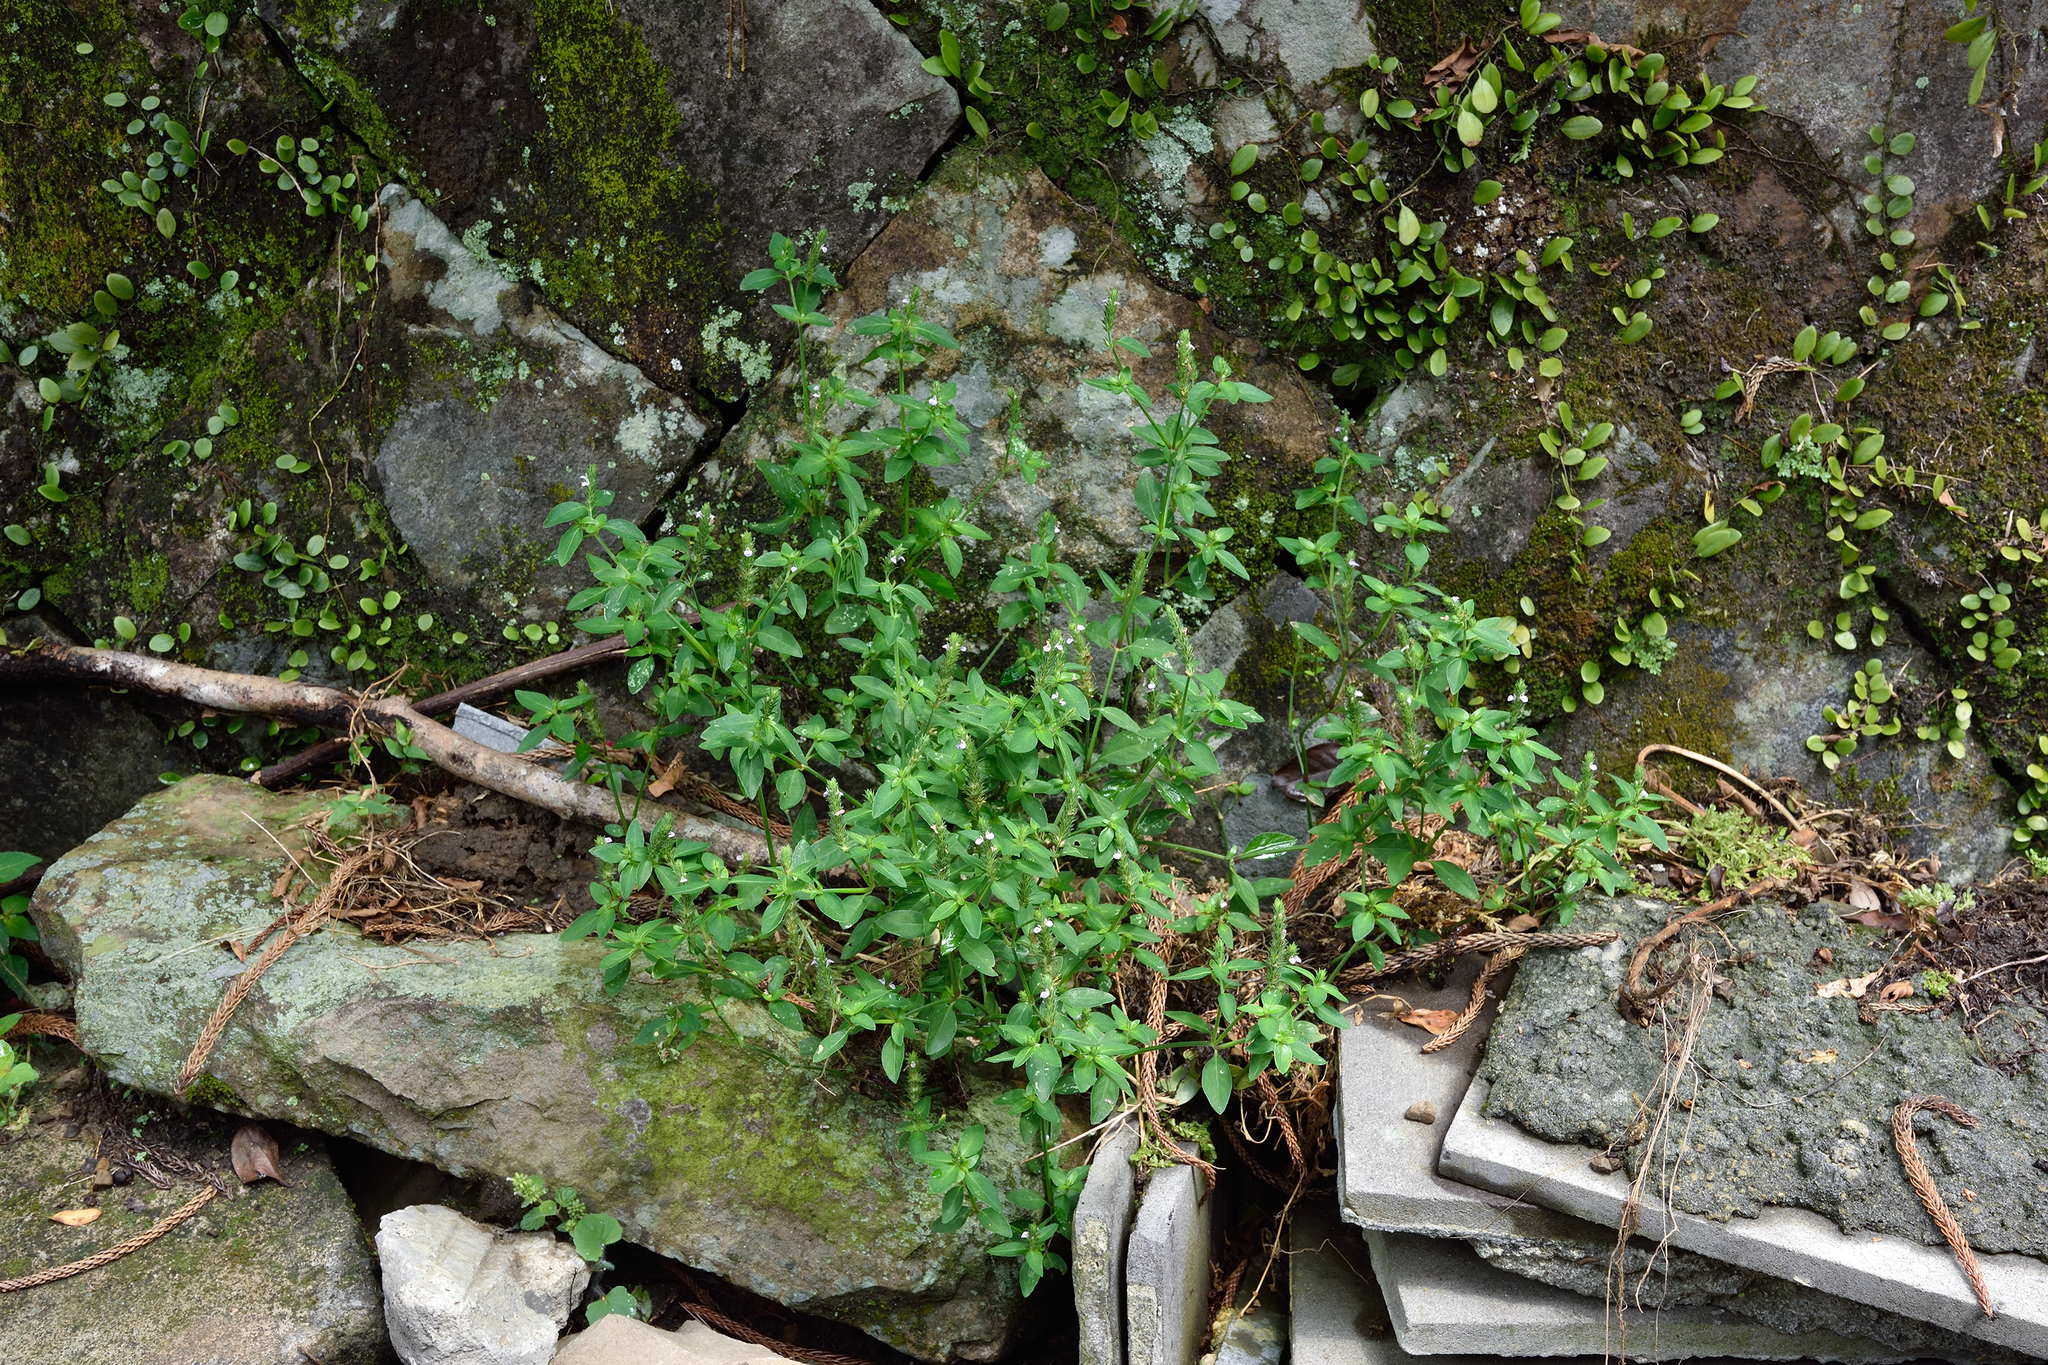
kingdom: Plantae
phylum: Tracheophyta
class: Magnoliopsida
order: Lamiales
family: Acanthaceae
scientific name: Acanthaceae
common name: Acanthaceae
